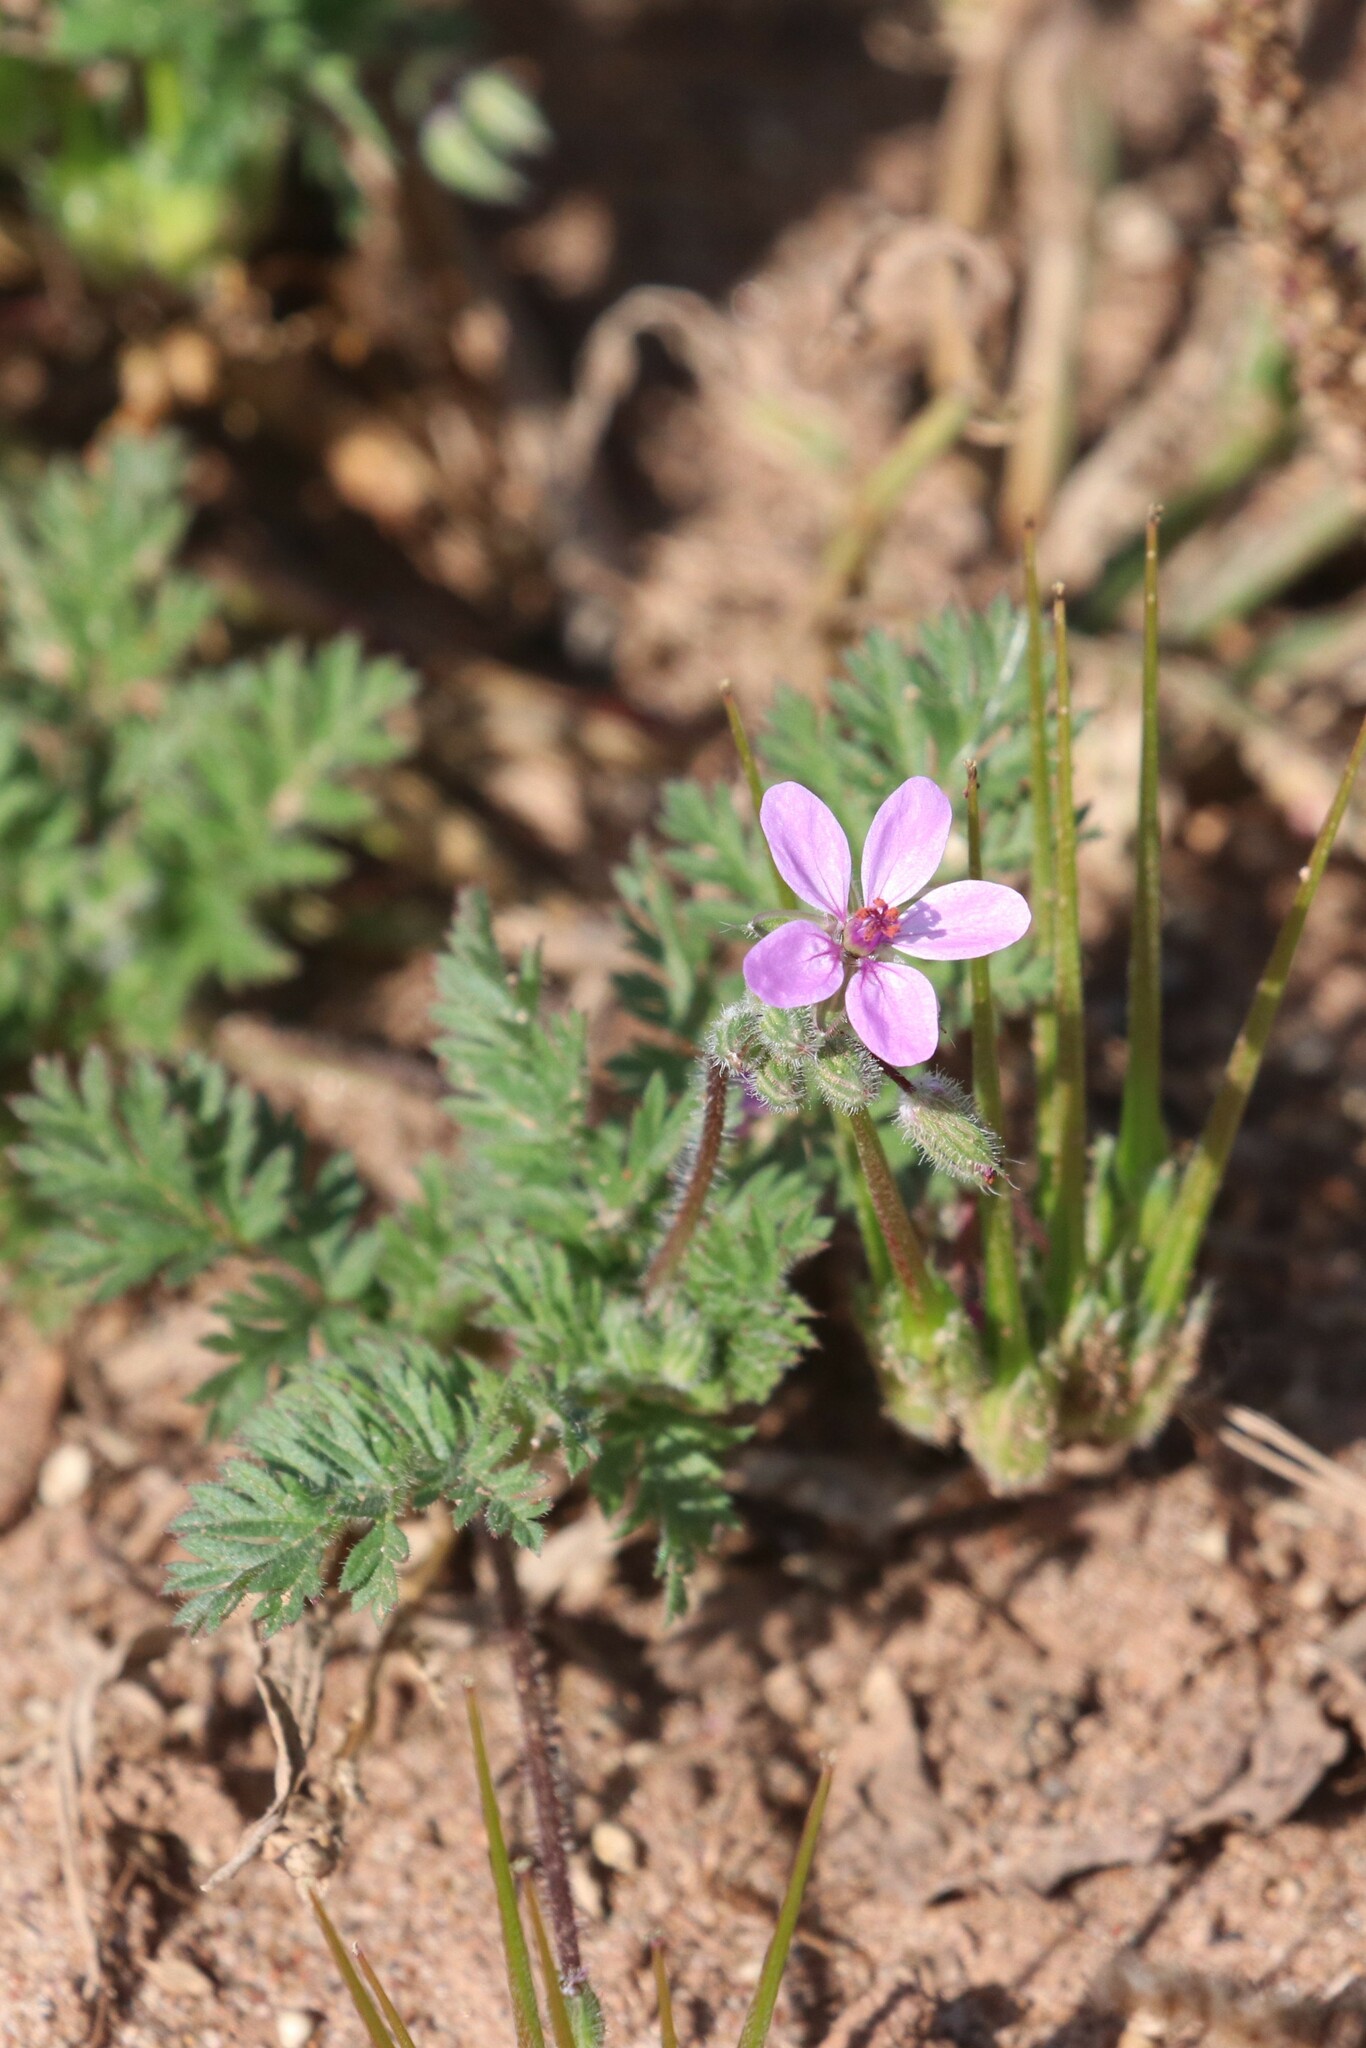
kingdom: Plantae
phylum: Tracheophyta
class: Magnoliopsida
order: Geraniales
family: Geraniaceae
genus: Erodium
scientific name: Erodium cicutarium
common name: Common stork's-bill
